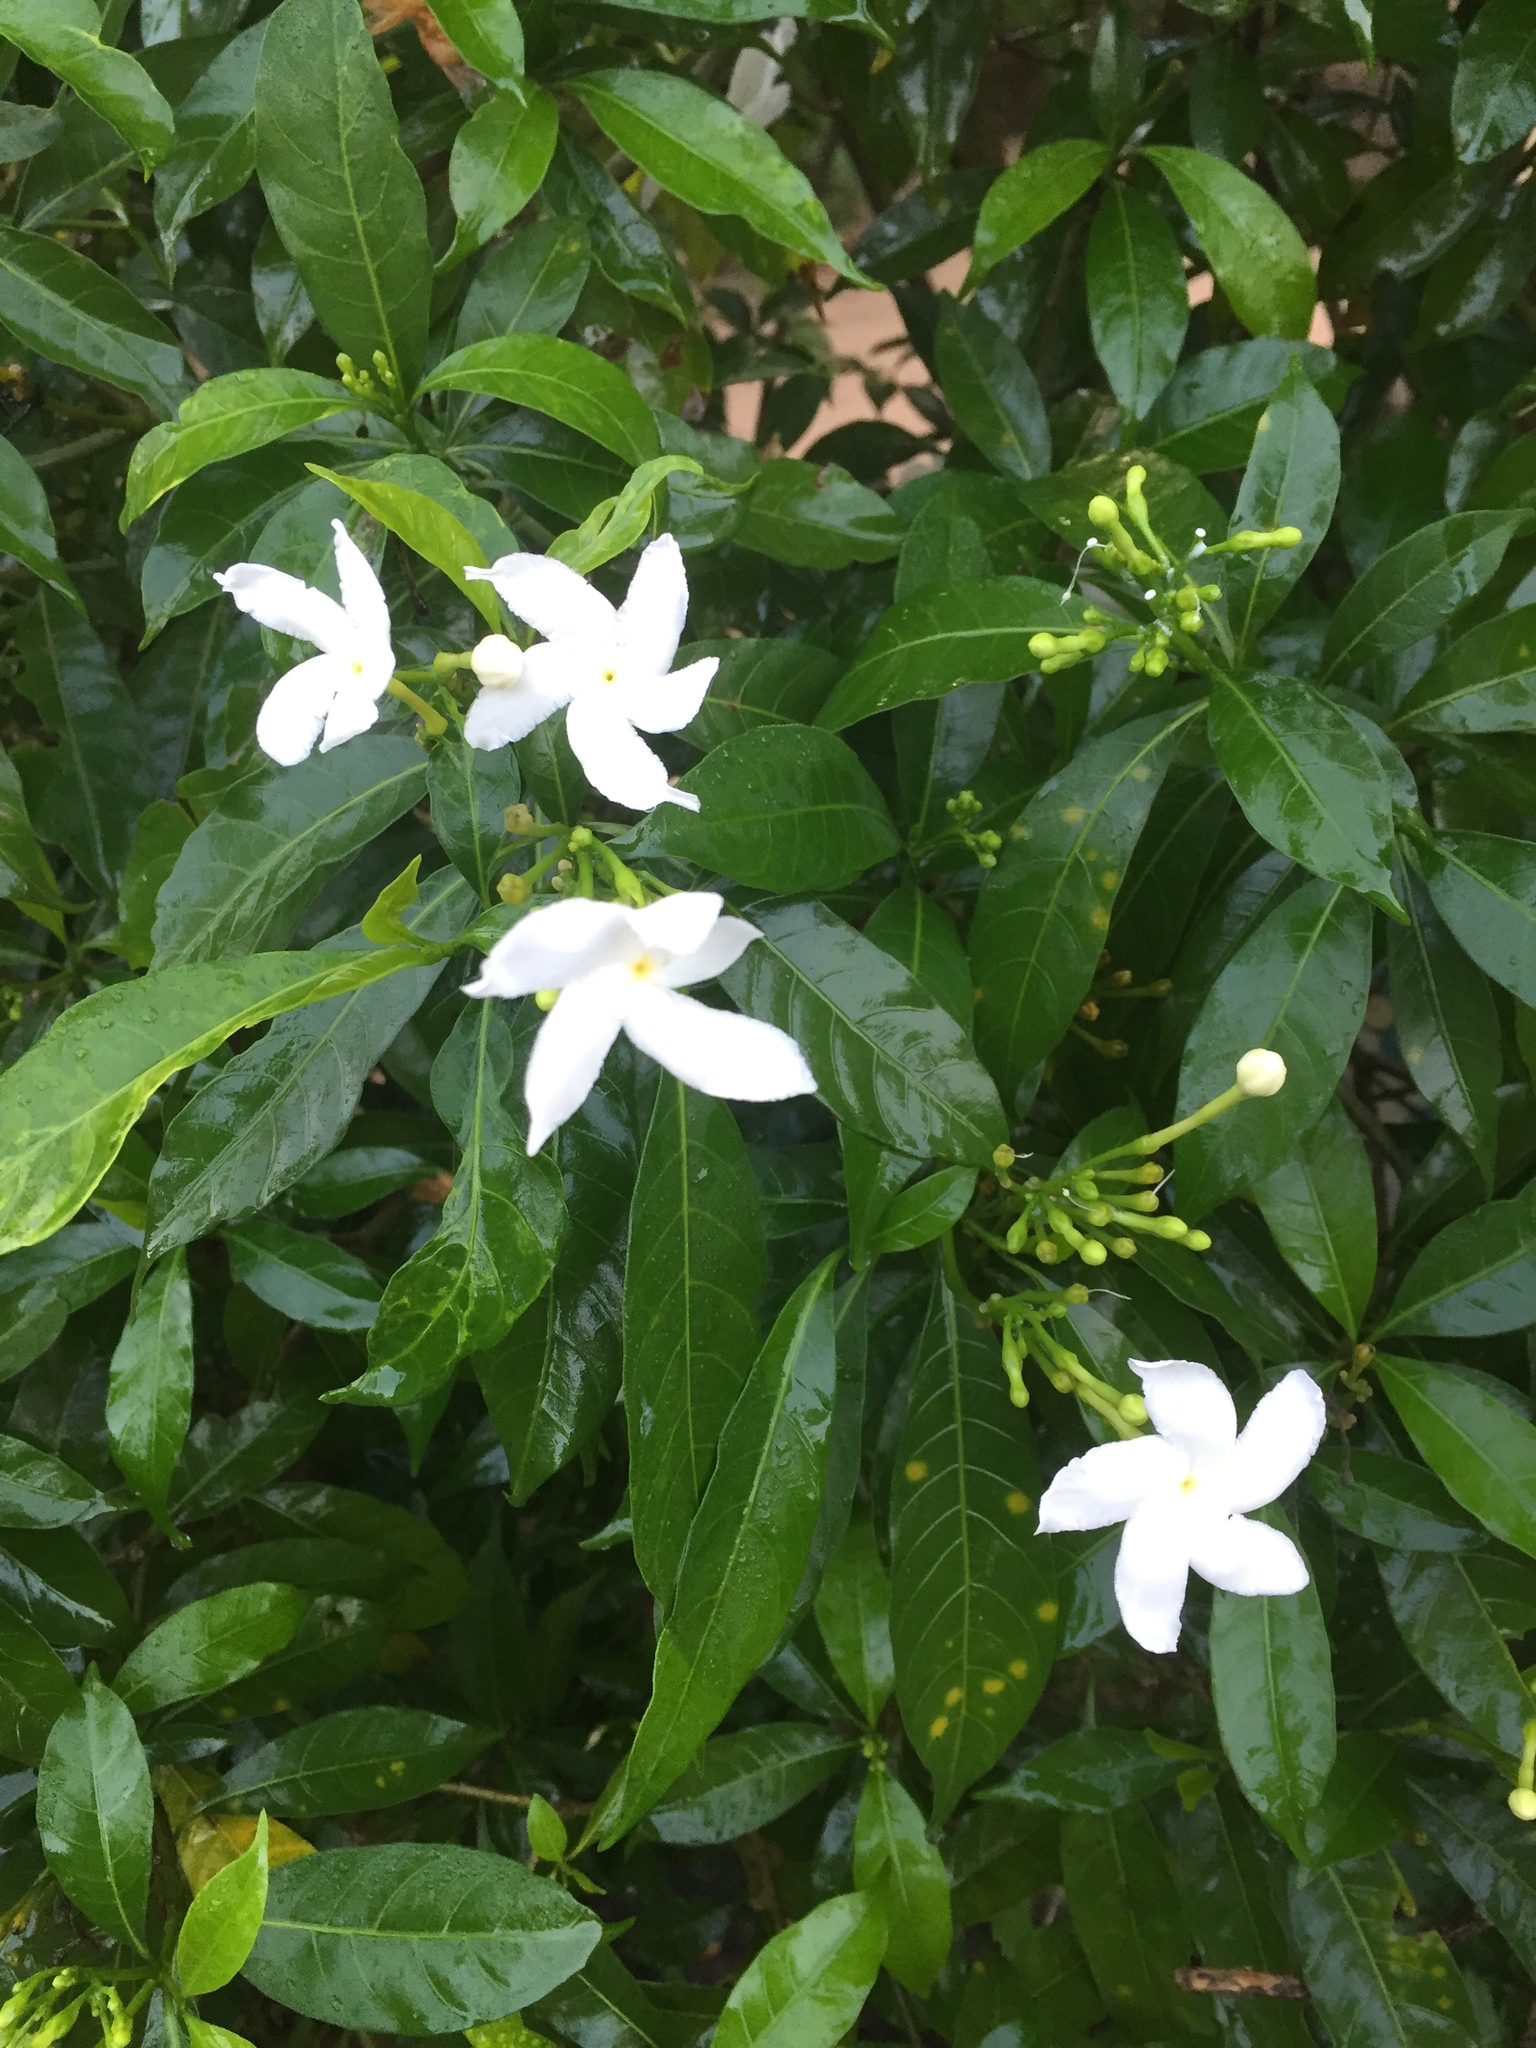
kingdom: Plantae
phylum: Tracheophyta
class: Magnoliopsida
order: Gentianales
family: Apocynaceae
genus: Tabernaemontana
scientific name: Tabernaemontana divaricata
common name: Pinwheelflower
